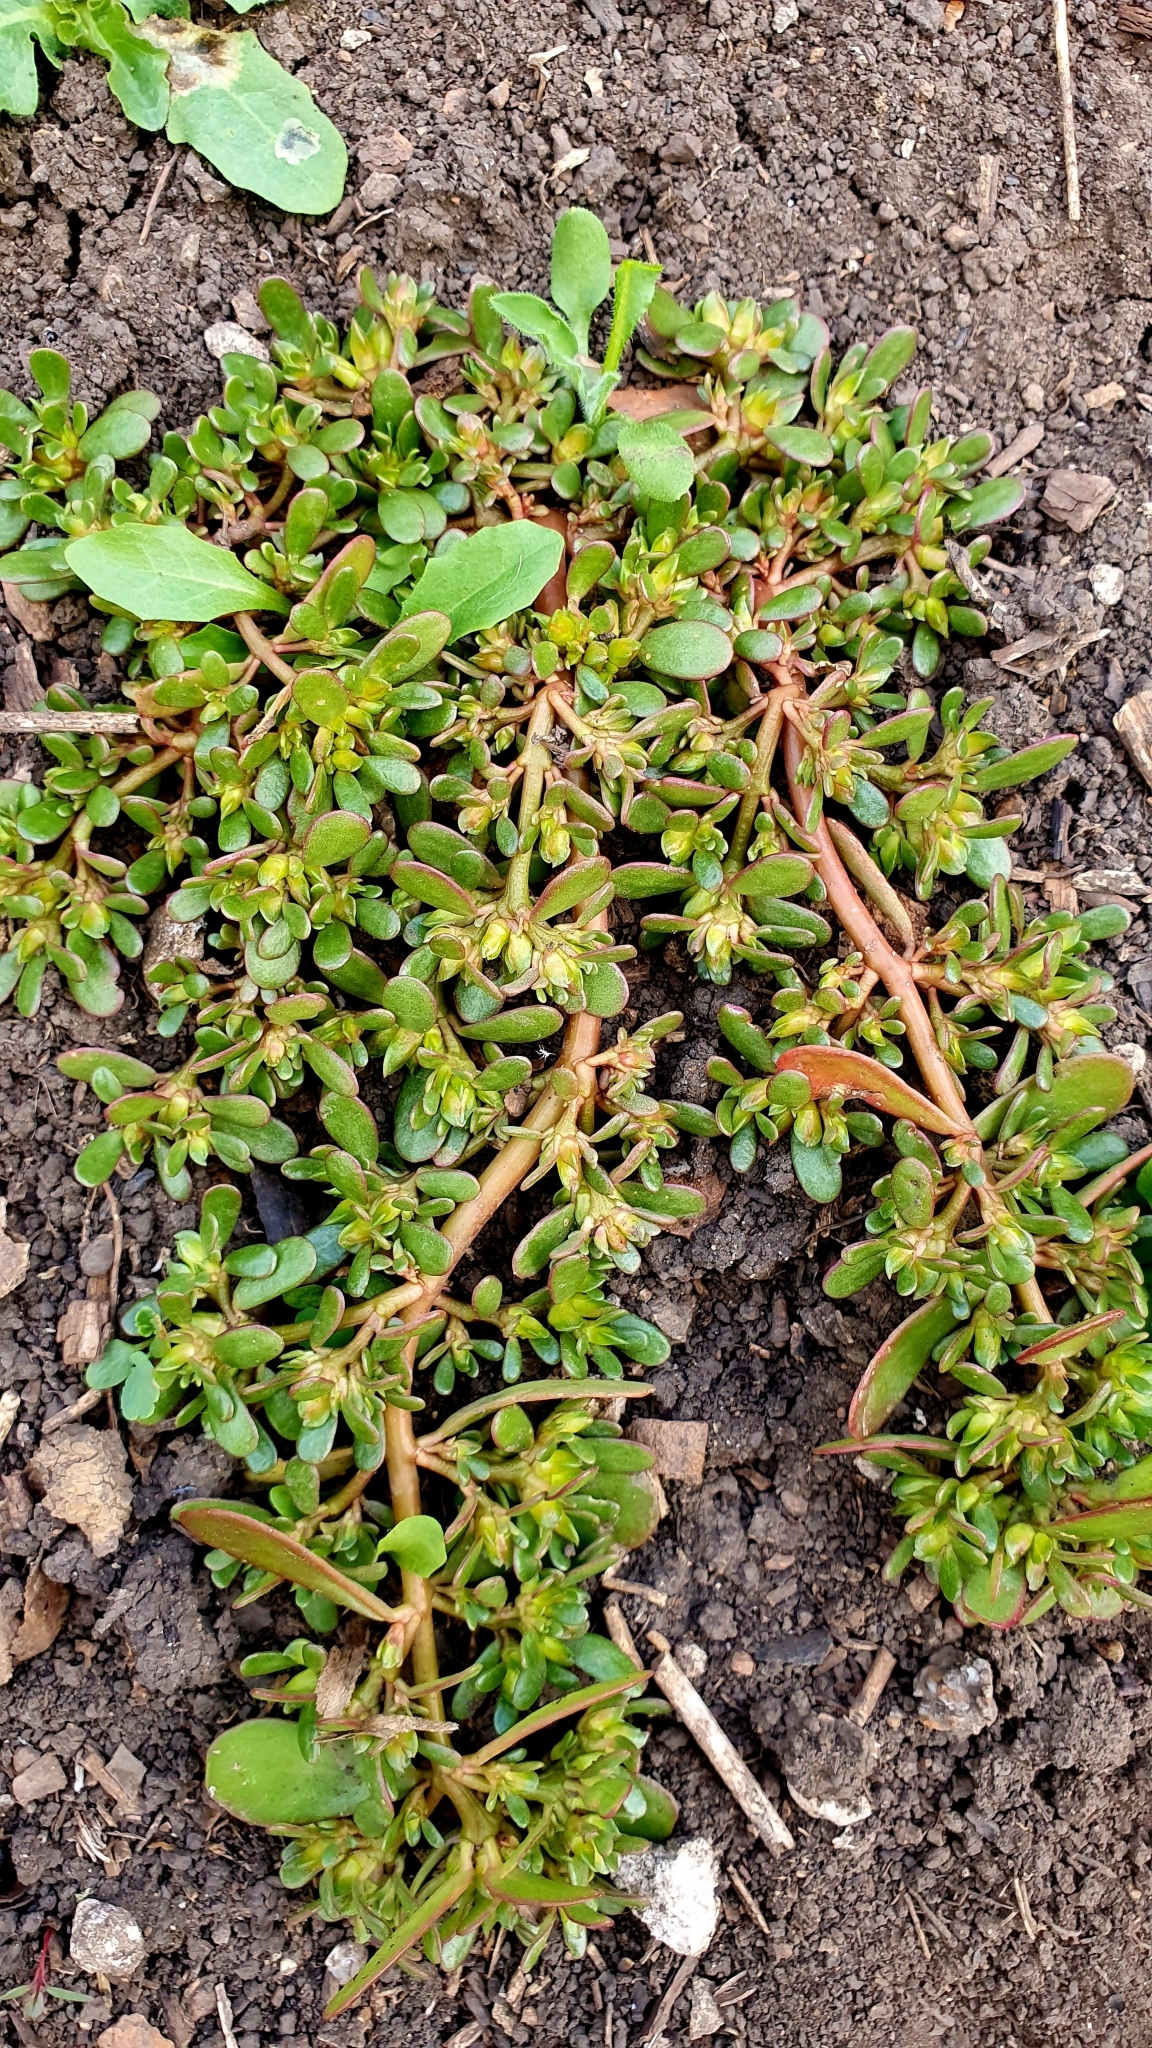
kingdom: Plantae
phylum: Tracheophyta
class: Magnoliopsida
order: Caryophyllales
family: Portulacaceae
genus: Portulaca
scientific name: Portulaca oleracea
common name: Common purslane
